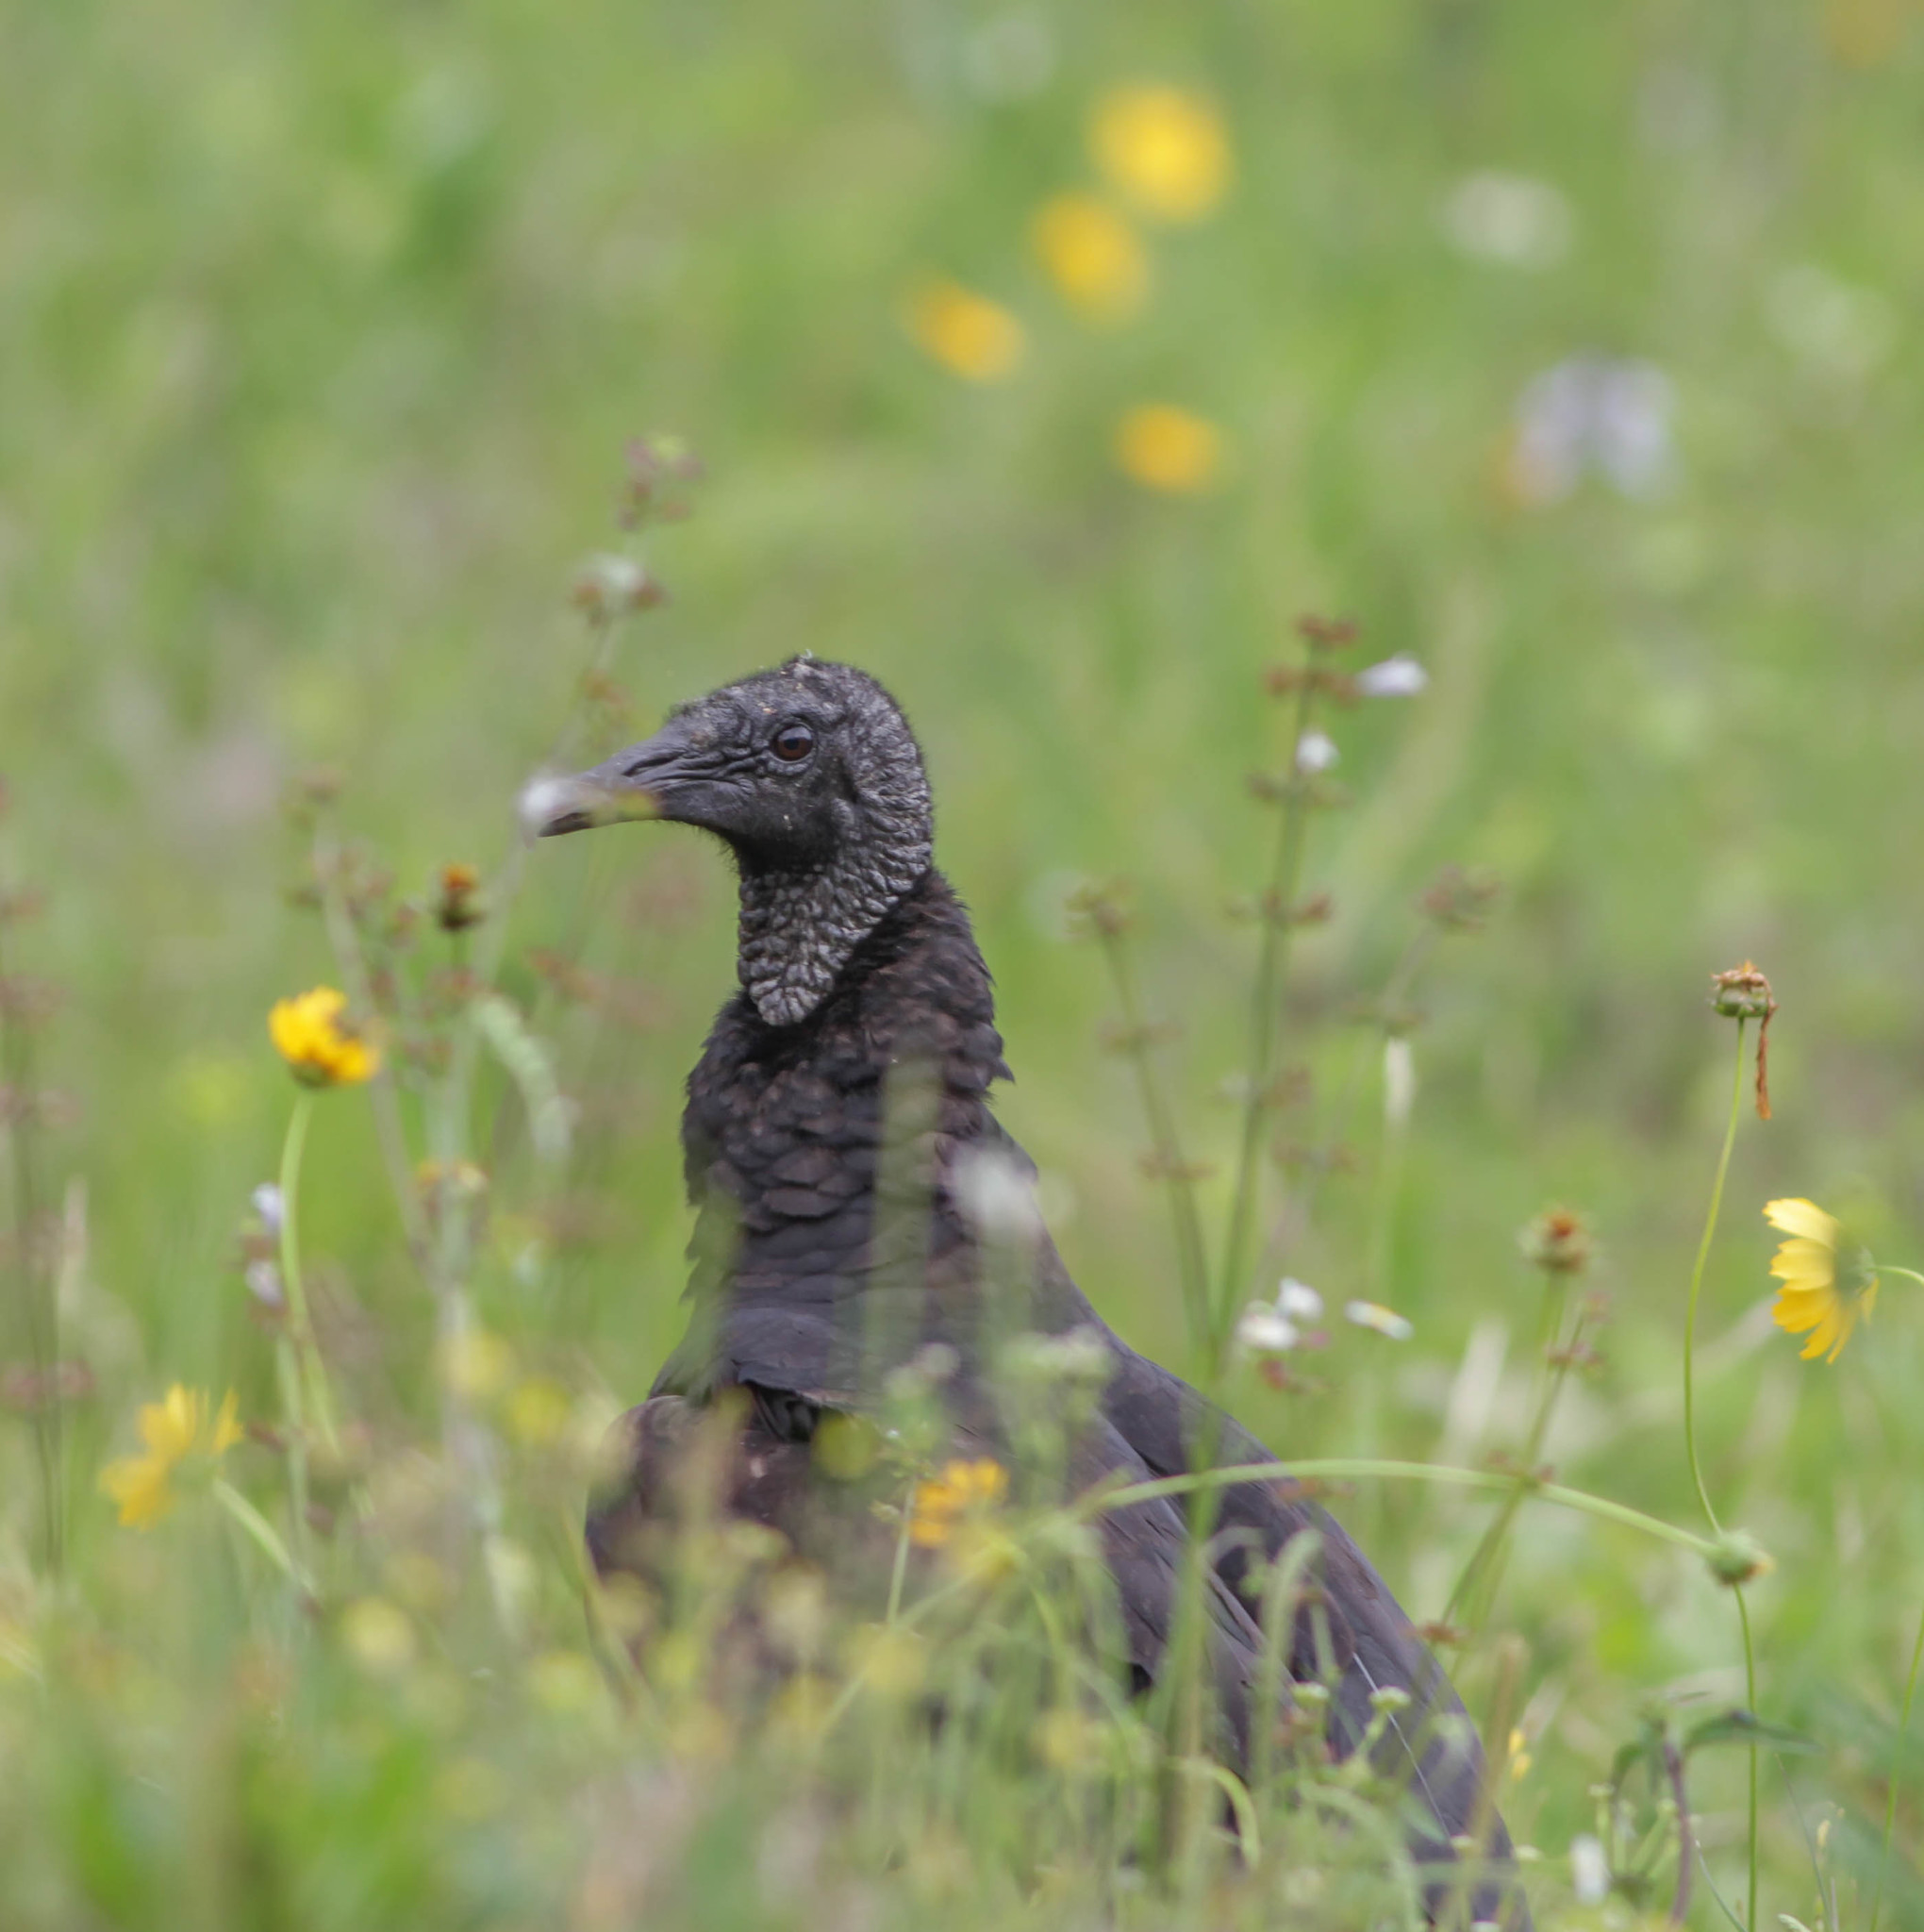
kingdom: Animalia
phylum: Chordata
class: Aves
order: Accipitriformes
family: Cathartidae
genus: Coragyps
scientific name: Coragyps atratus
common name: Black vulture
